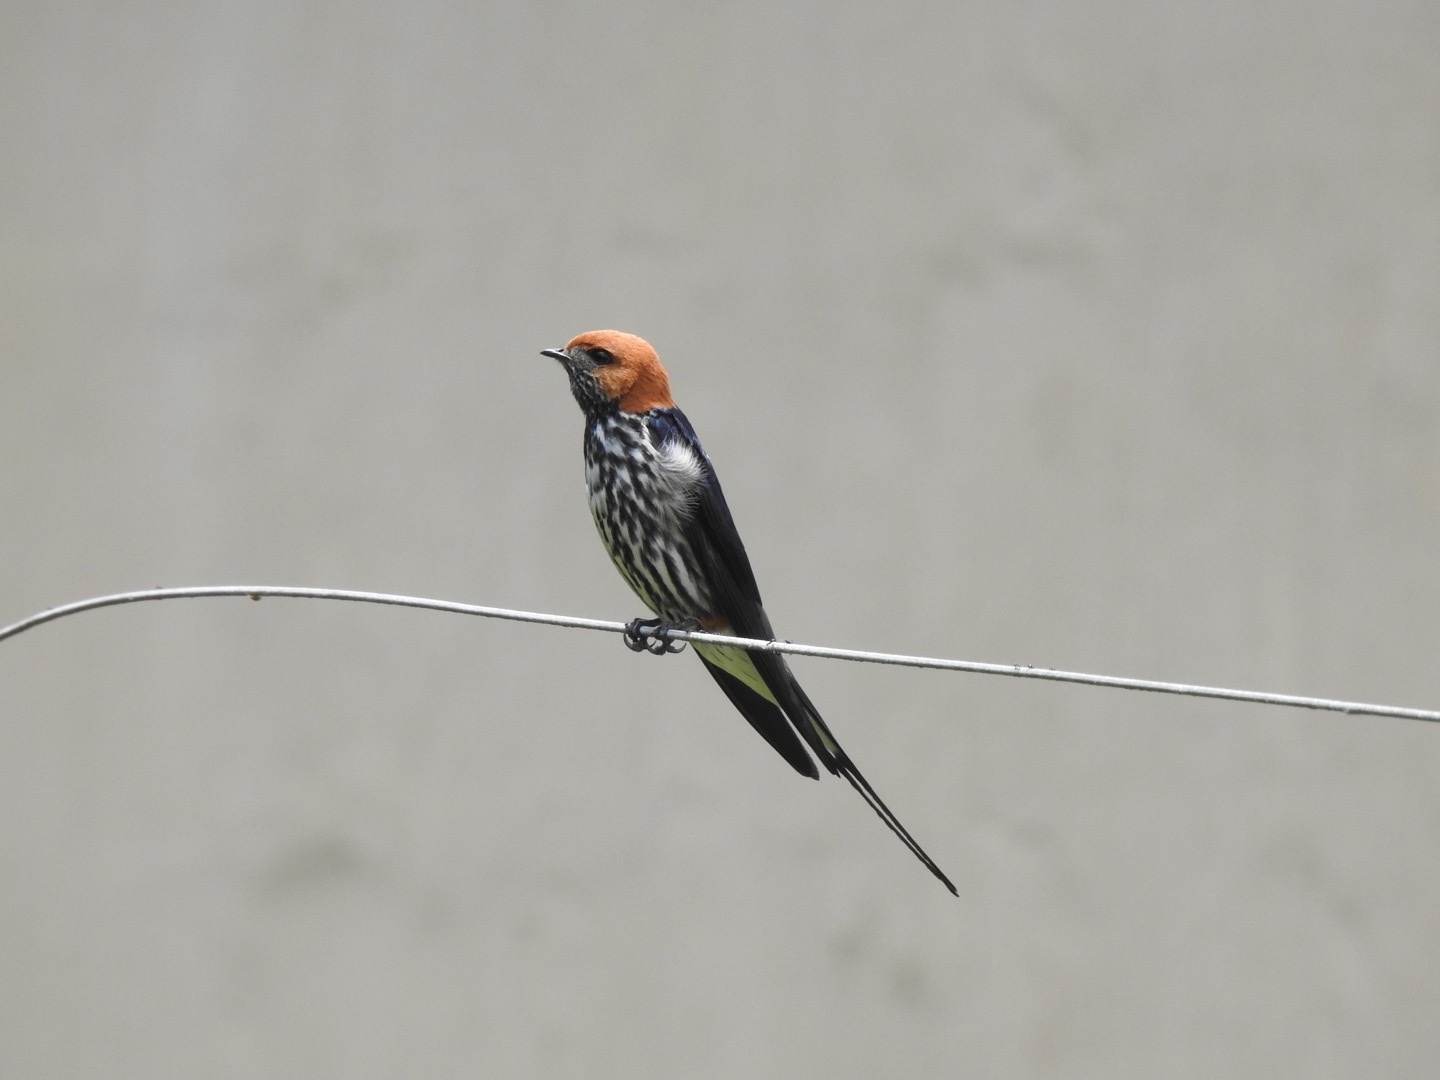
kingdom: Animalia
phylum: Chordata
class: Aves
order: Passeriformes
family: Hirundinidae
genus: Cecropis
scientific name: Cecropis abyssinica
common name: Lesser striped-swallow
